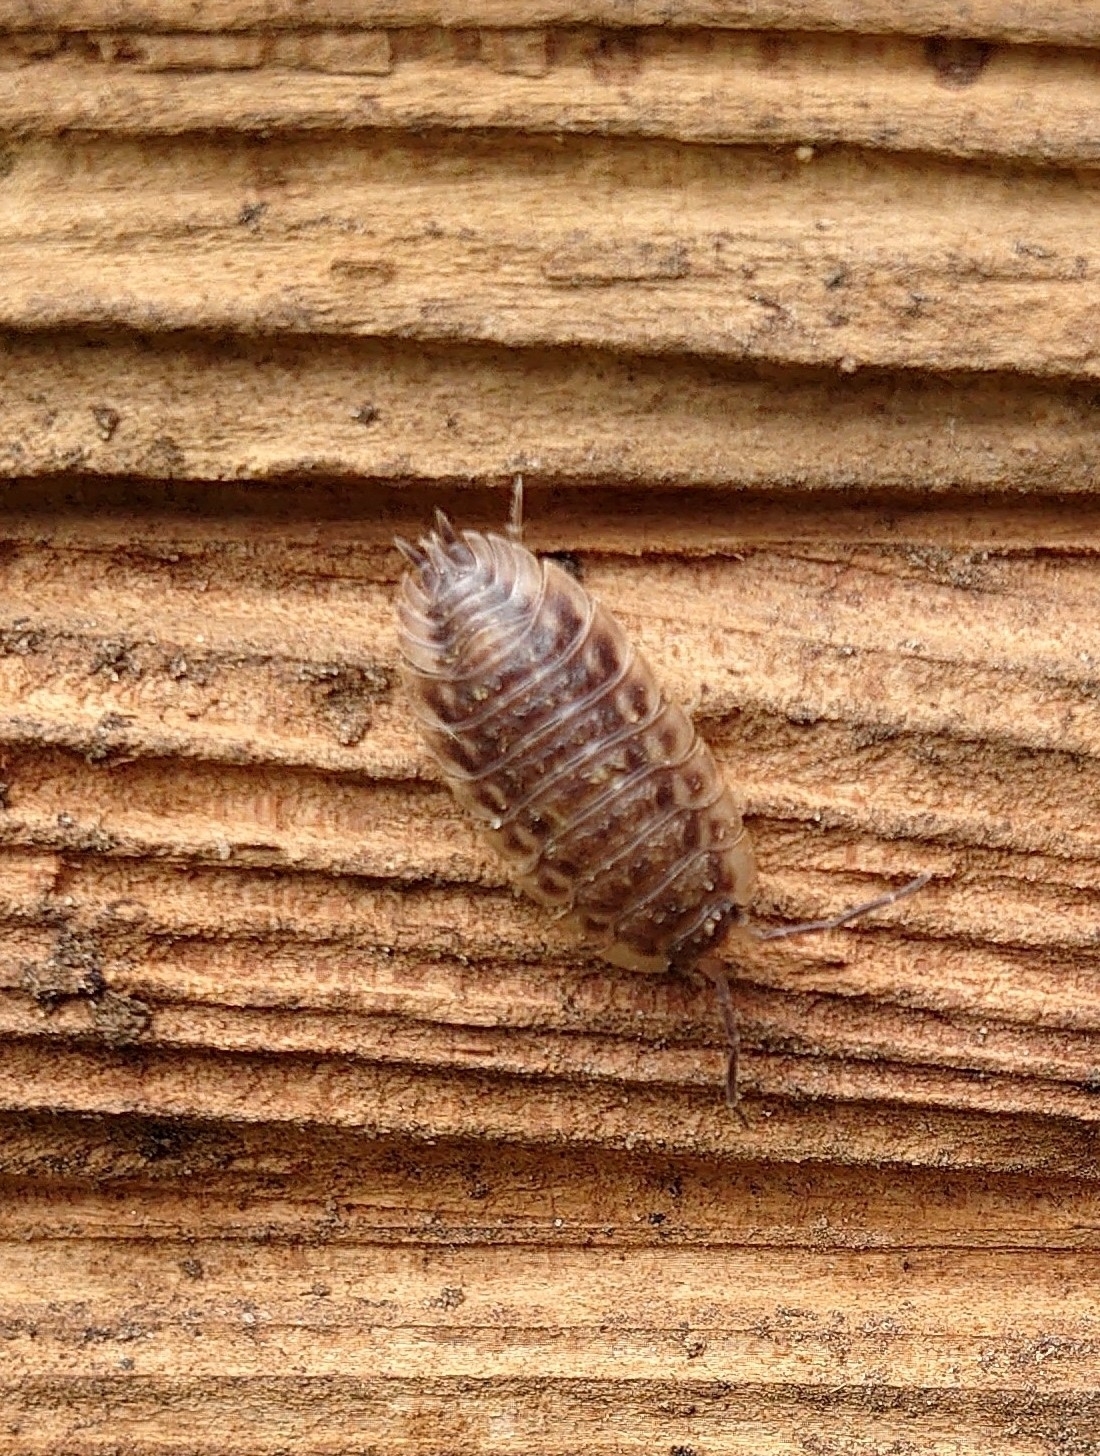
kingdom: Animalia
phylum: Arthropoda
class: Malacostraca
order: Isopoda
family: Oniscidae
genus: Oniscus
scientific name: Oniscus asellus
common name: Common shiny woodlouse
